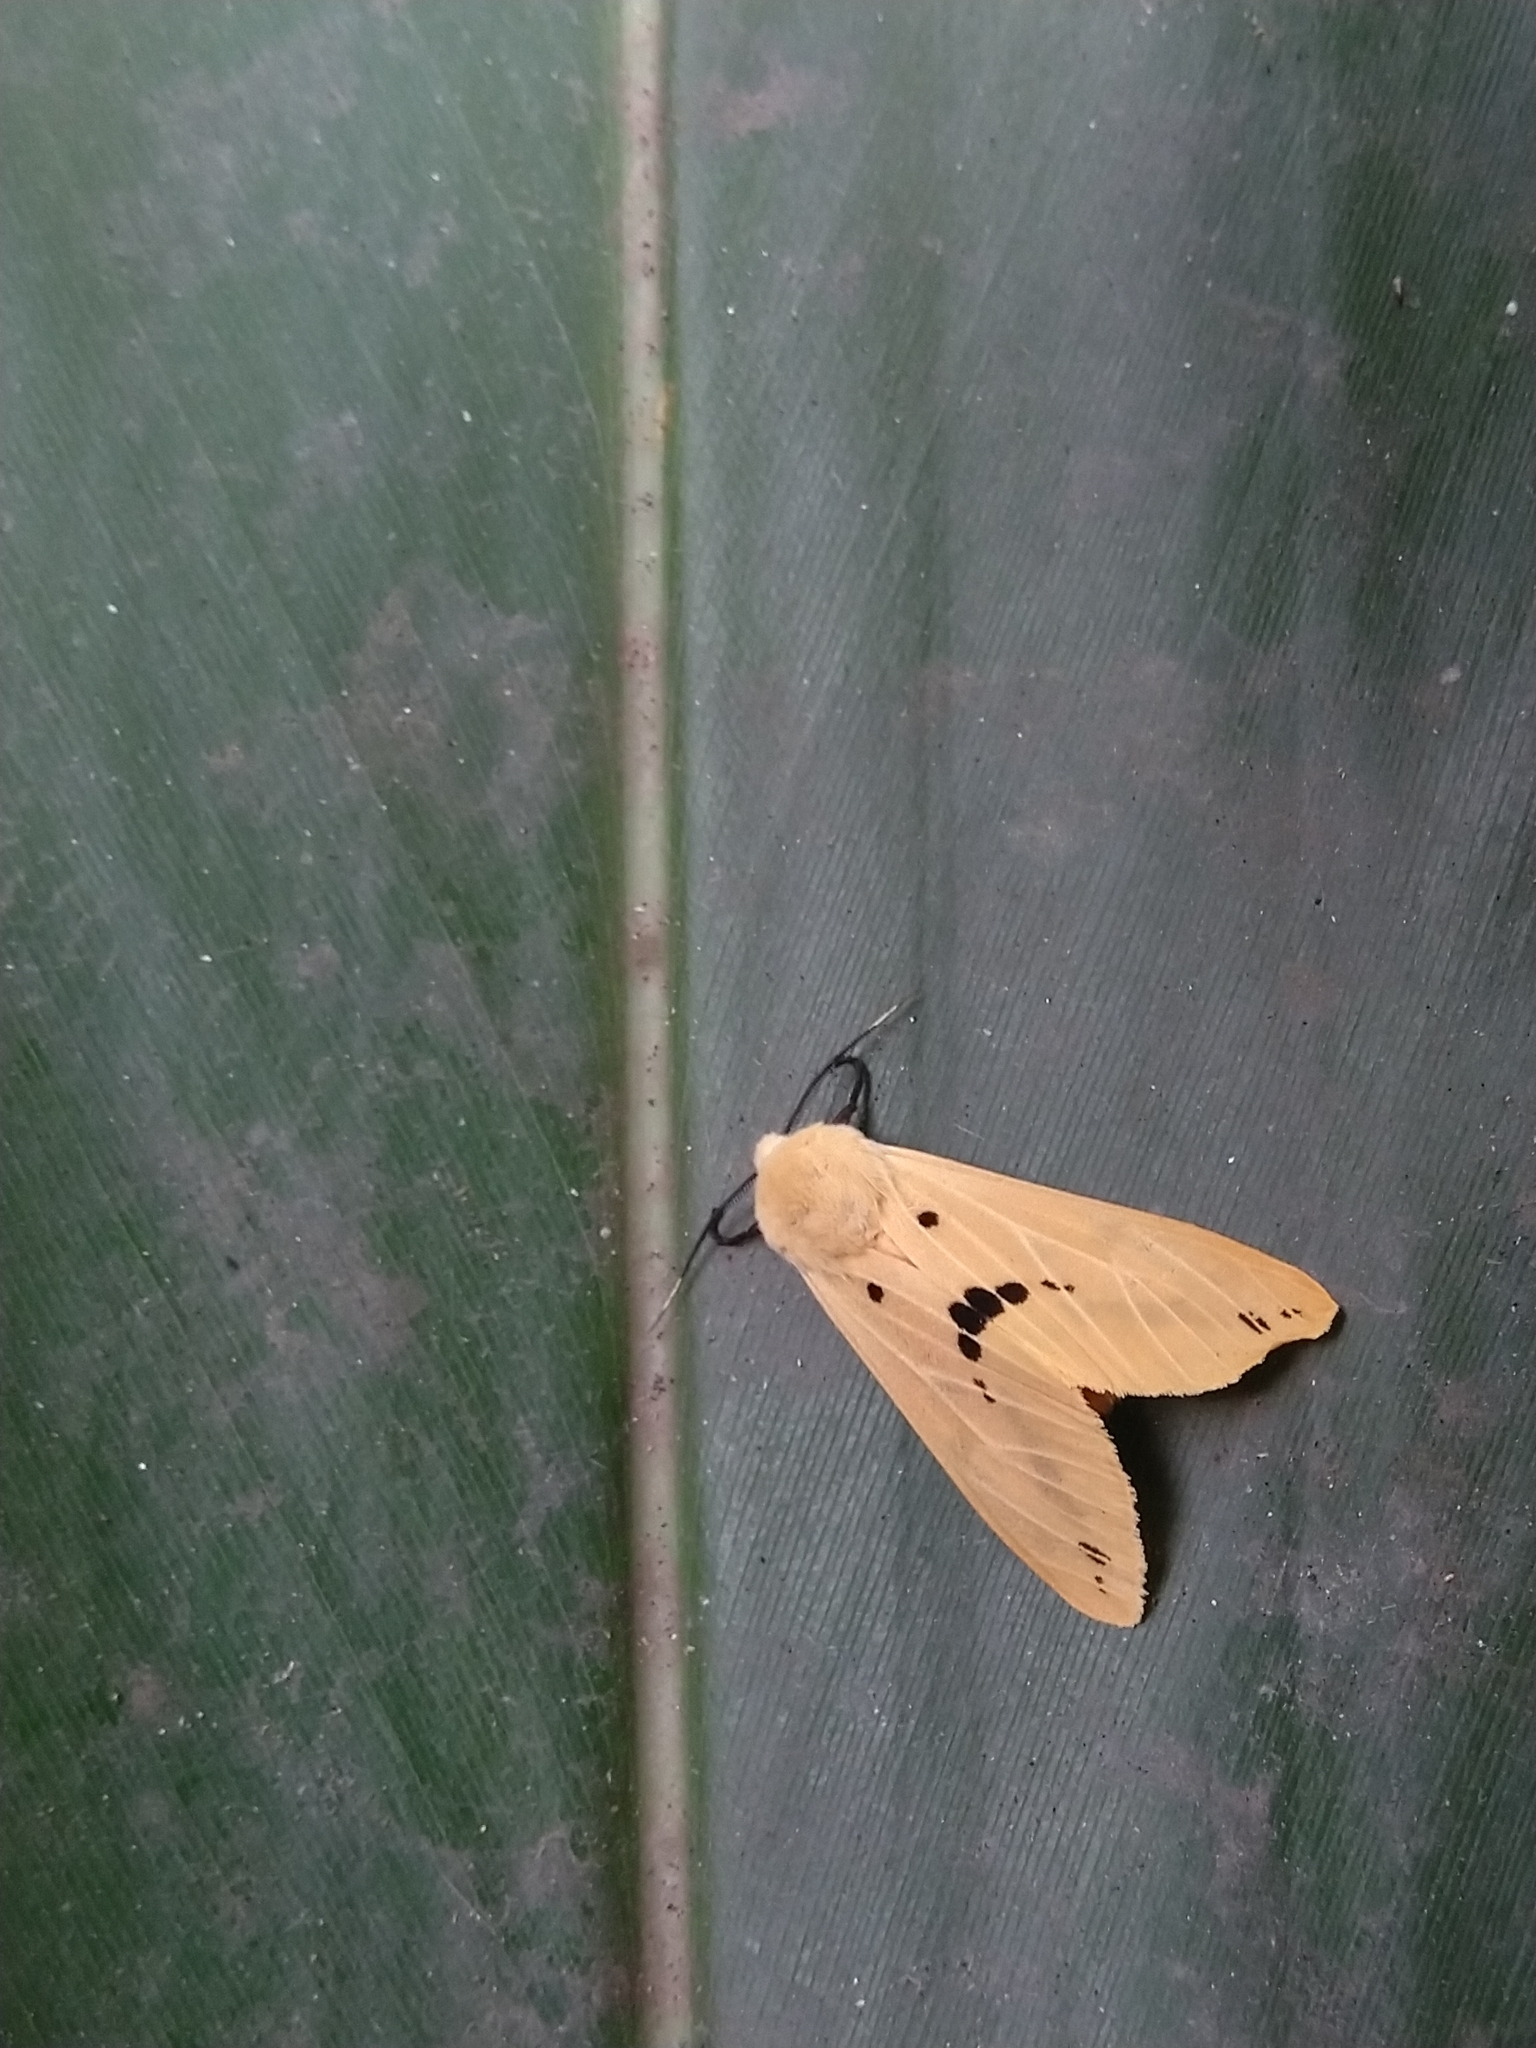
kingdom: Animalia
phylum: Arthropoda
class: Insecta
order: Lepidoptera
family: Erebidae
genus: Spilarctia
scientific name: Spilarctia nydia
